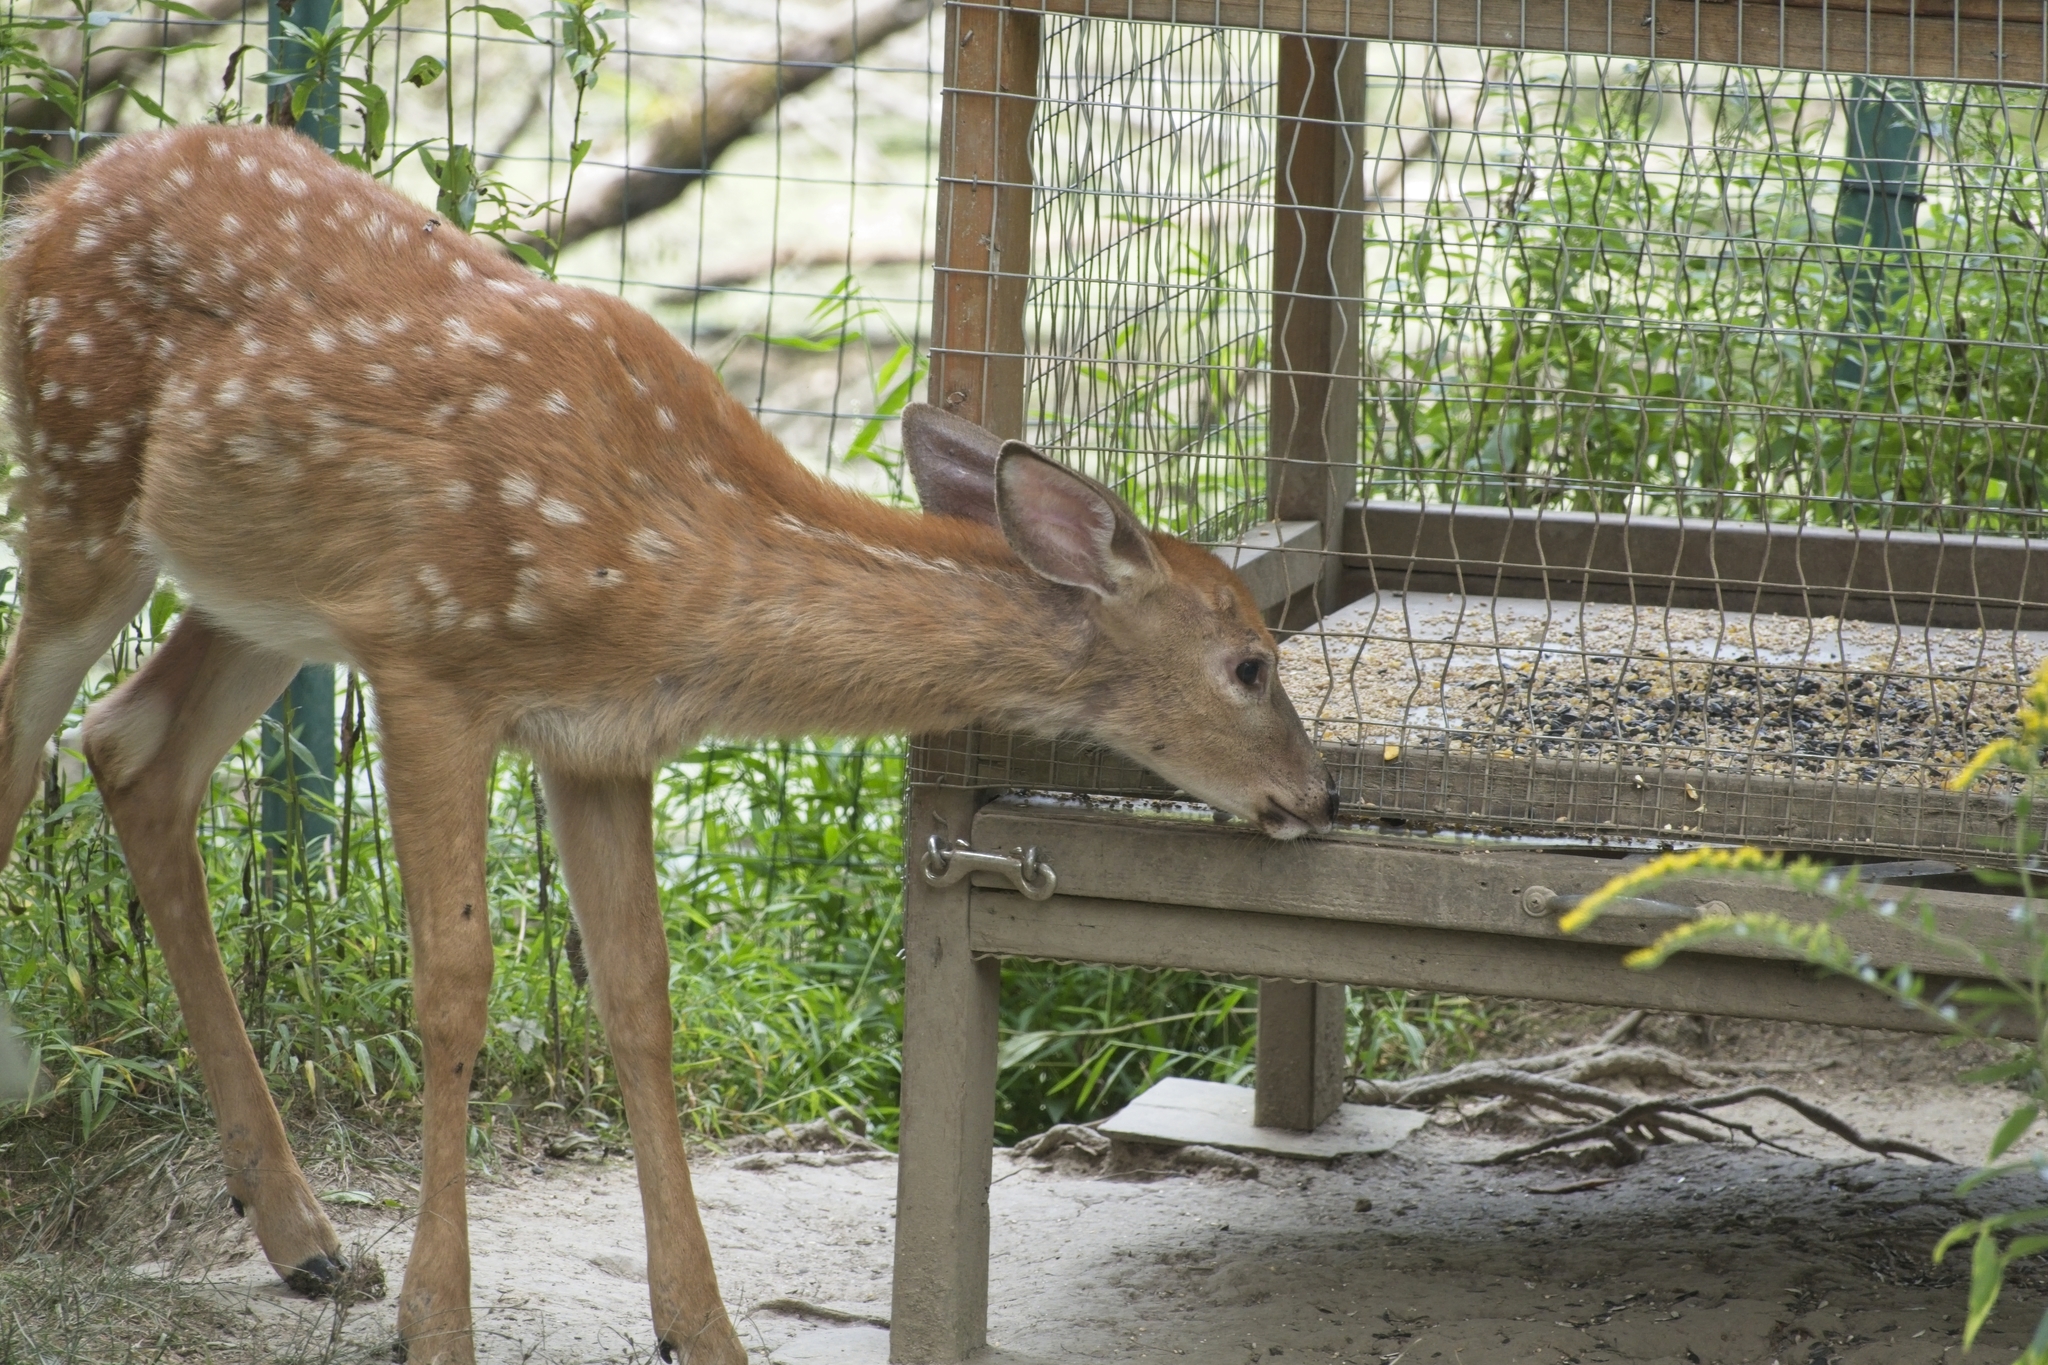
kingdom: Animalia
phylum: Chordata
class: Mammalia
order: Artiodactyla
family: Cervidae
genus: Odocoileus
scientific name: Odocoileus virginianus
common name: White-tailed deer
